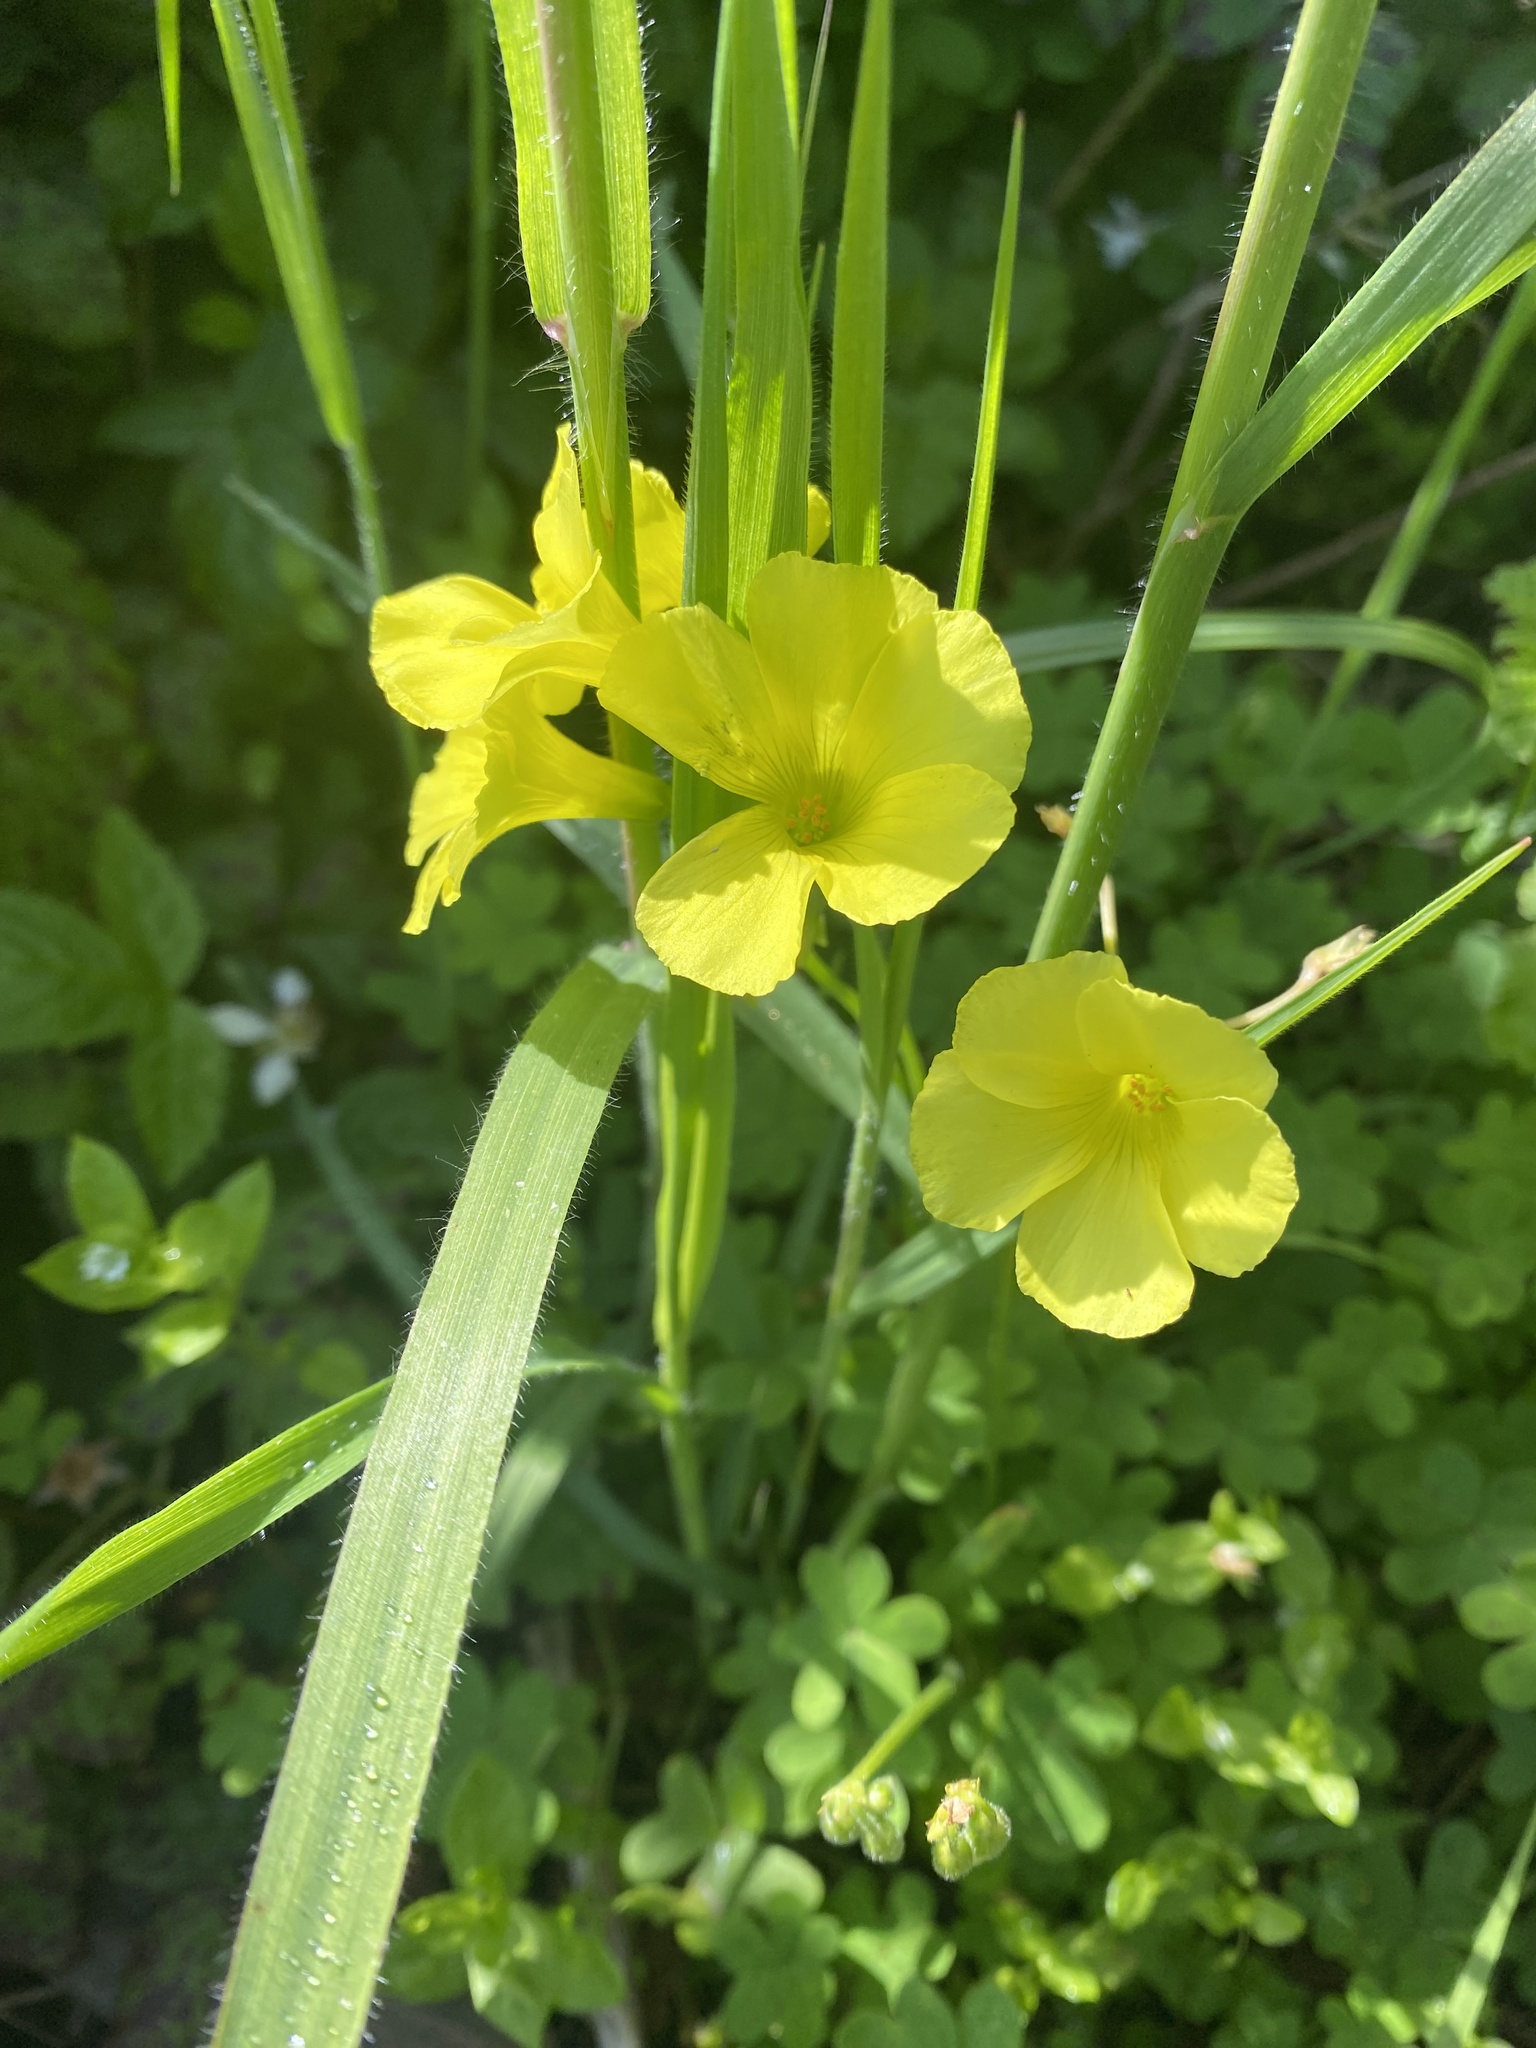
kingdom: Plantae
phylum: Tracheophyta
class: Magnoliopsida
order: Oxalidales
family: Oxalidaceae
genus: Oxalis
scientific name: Oxalis pes-caprae
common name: Bermuda-buttercup
